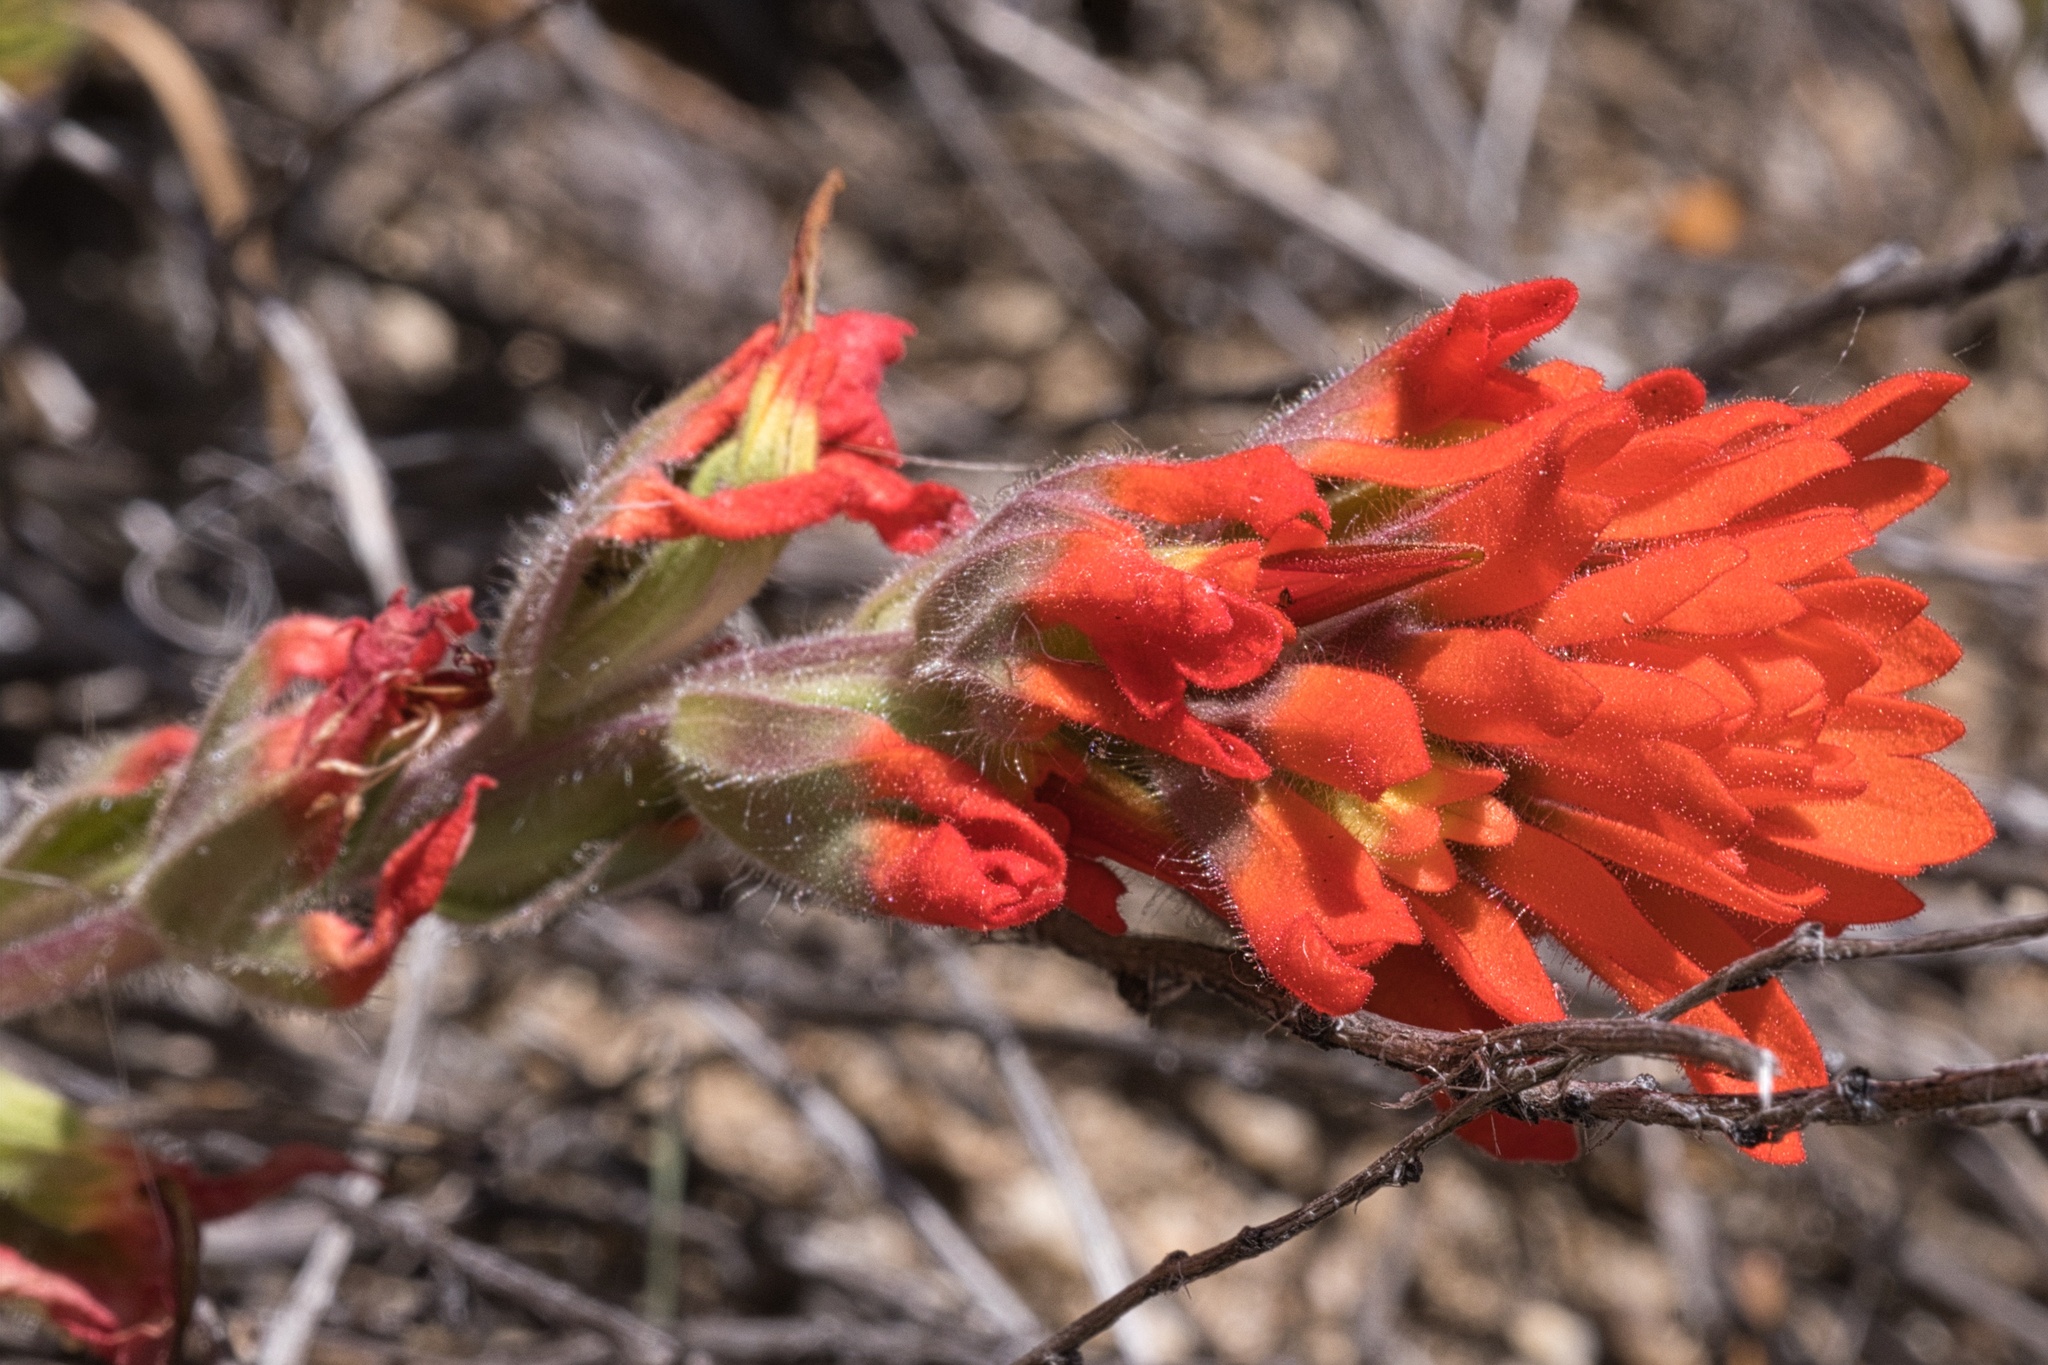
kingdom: Plantae
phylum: Tracheophyta
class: Magnoliopsida
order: Lamiales
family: Orobanchaceae
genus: Castilleja
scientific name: Castilleja martini
